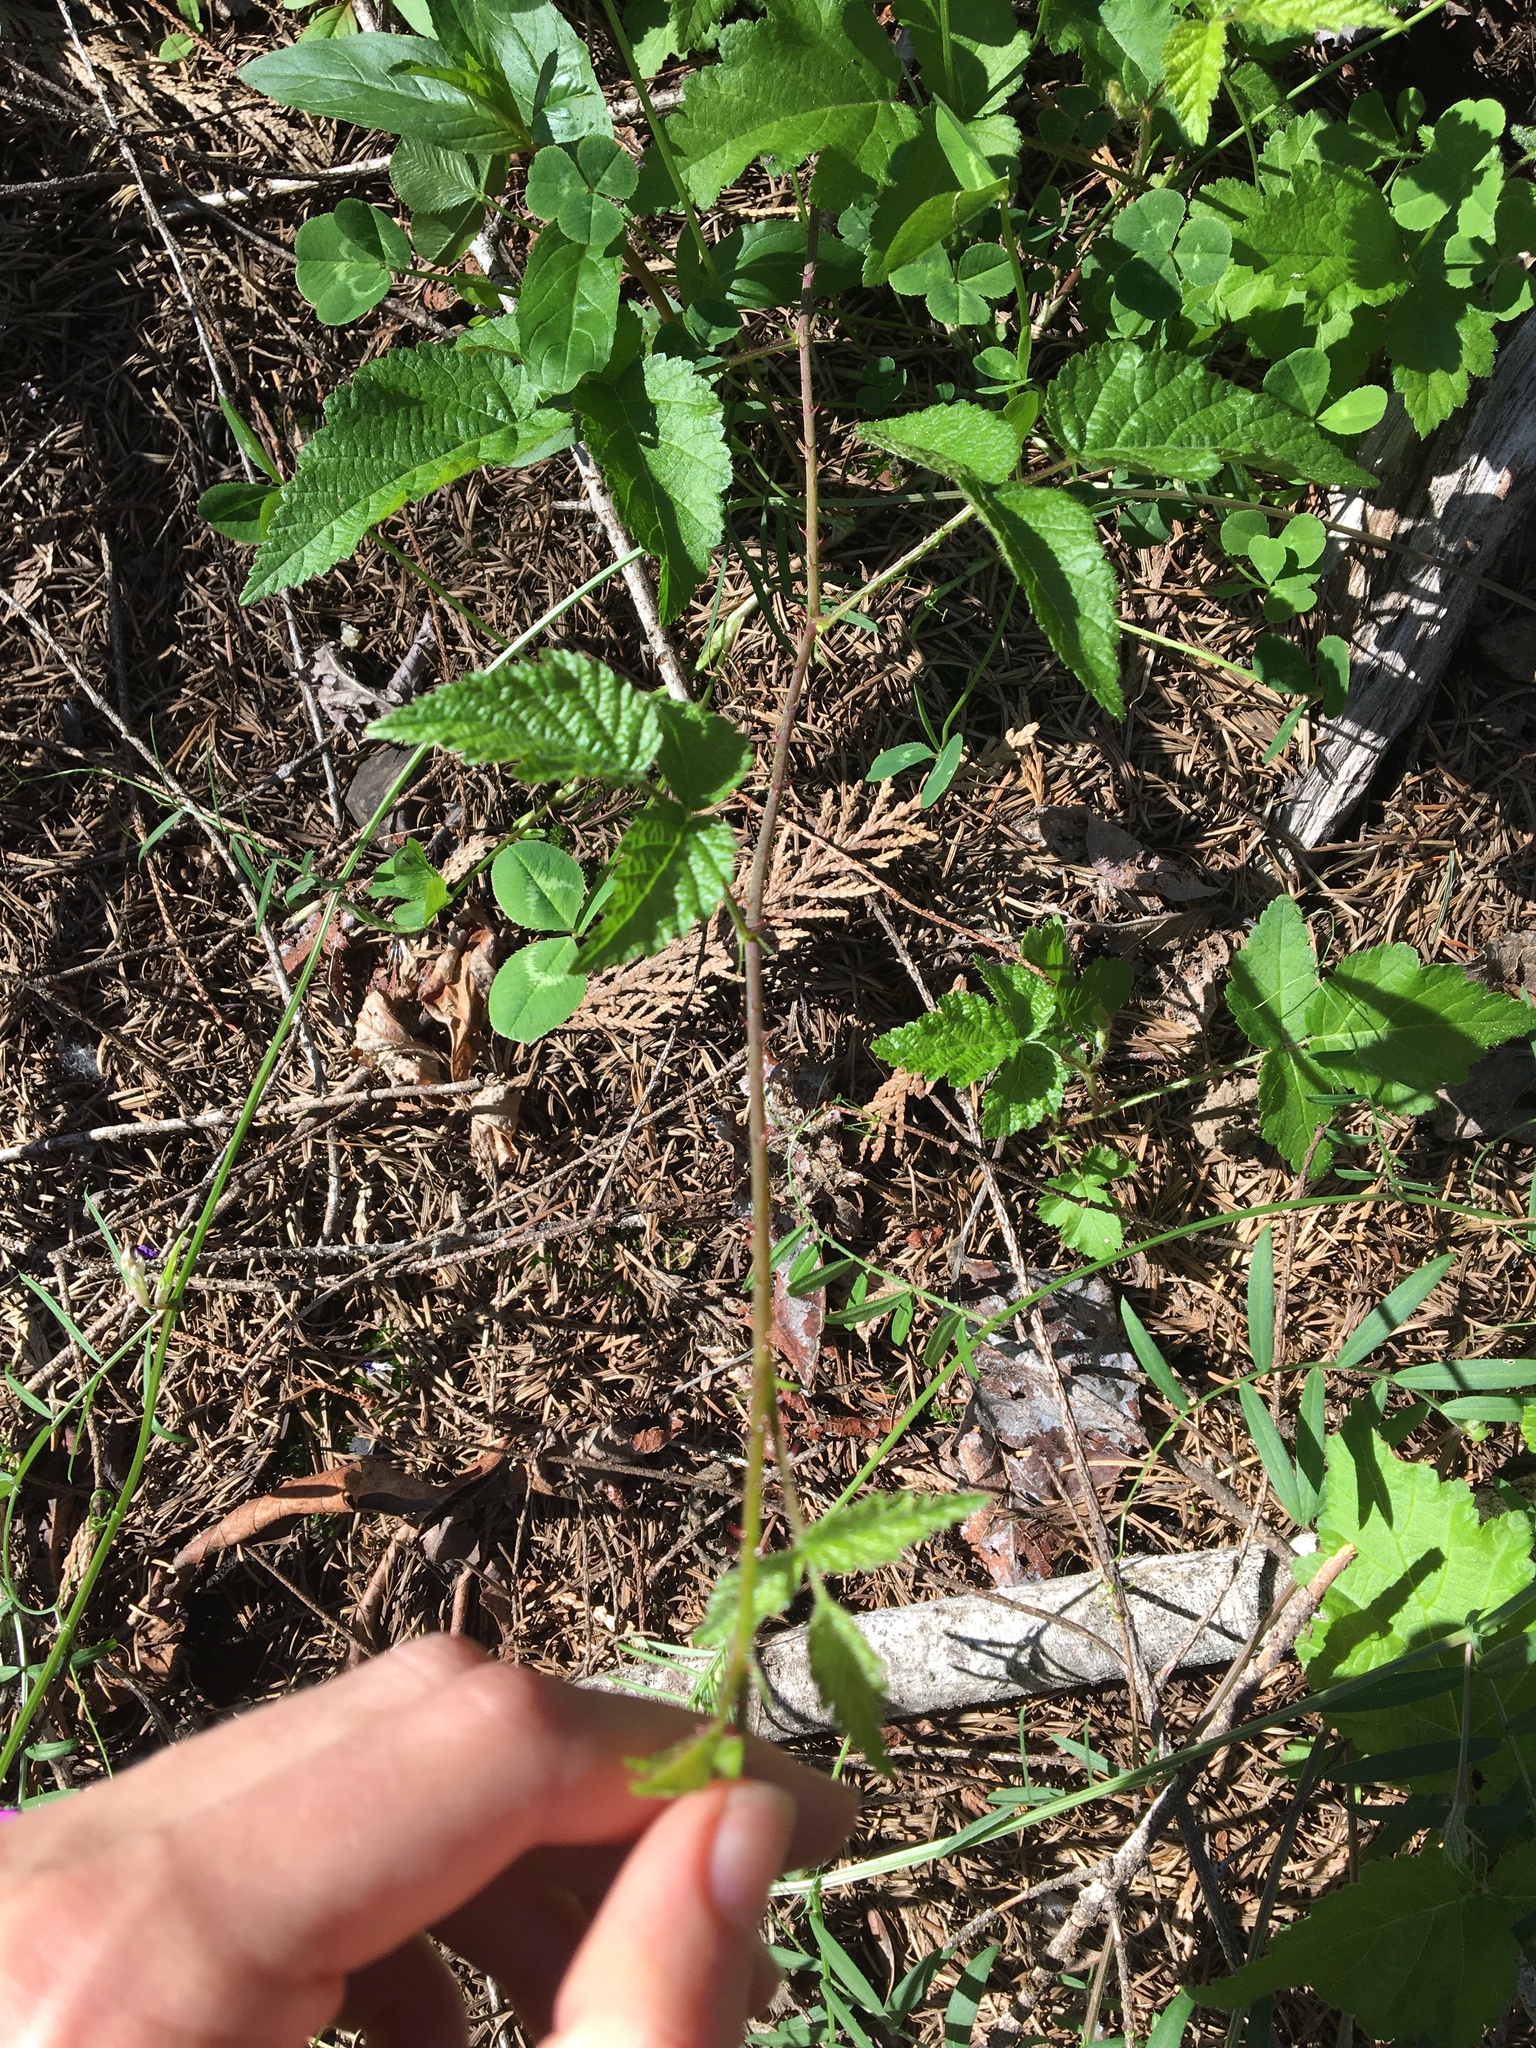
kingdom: Plantae
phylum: Tracheophyta
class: Magnoliopsida
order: Rosales
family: Rosaceae
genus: Rubus
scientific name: Rubus ursinus
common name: Pacific blackberry
